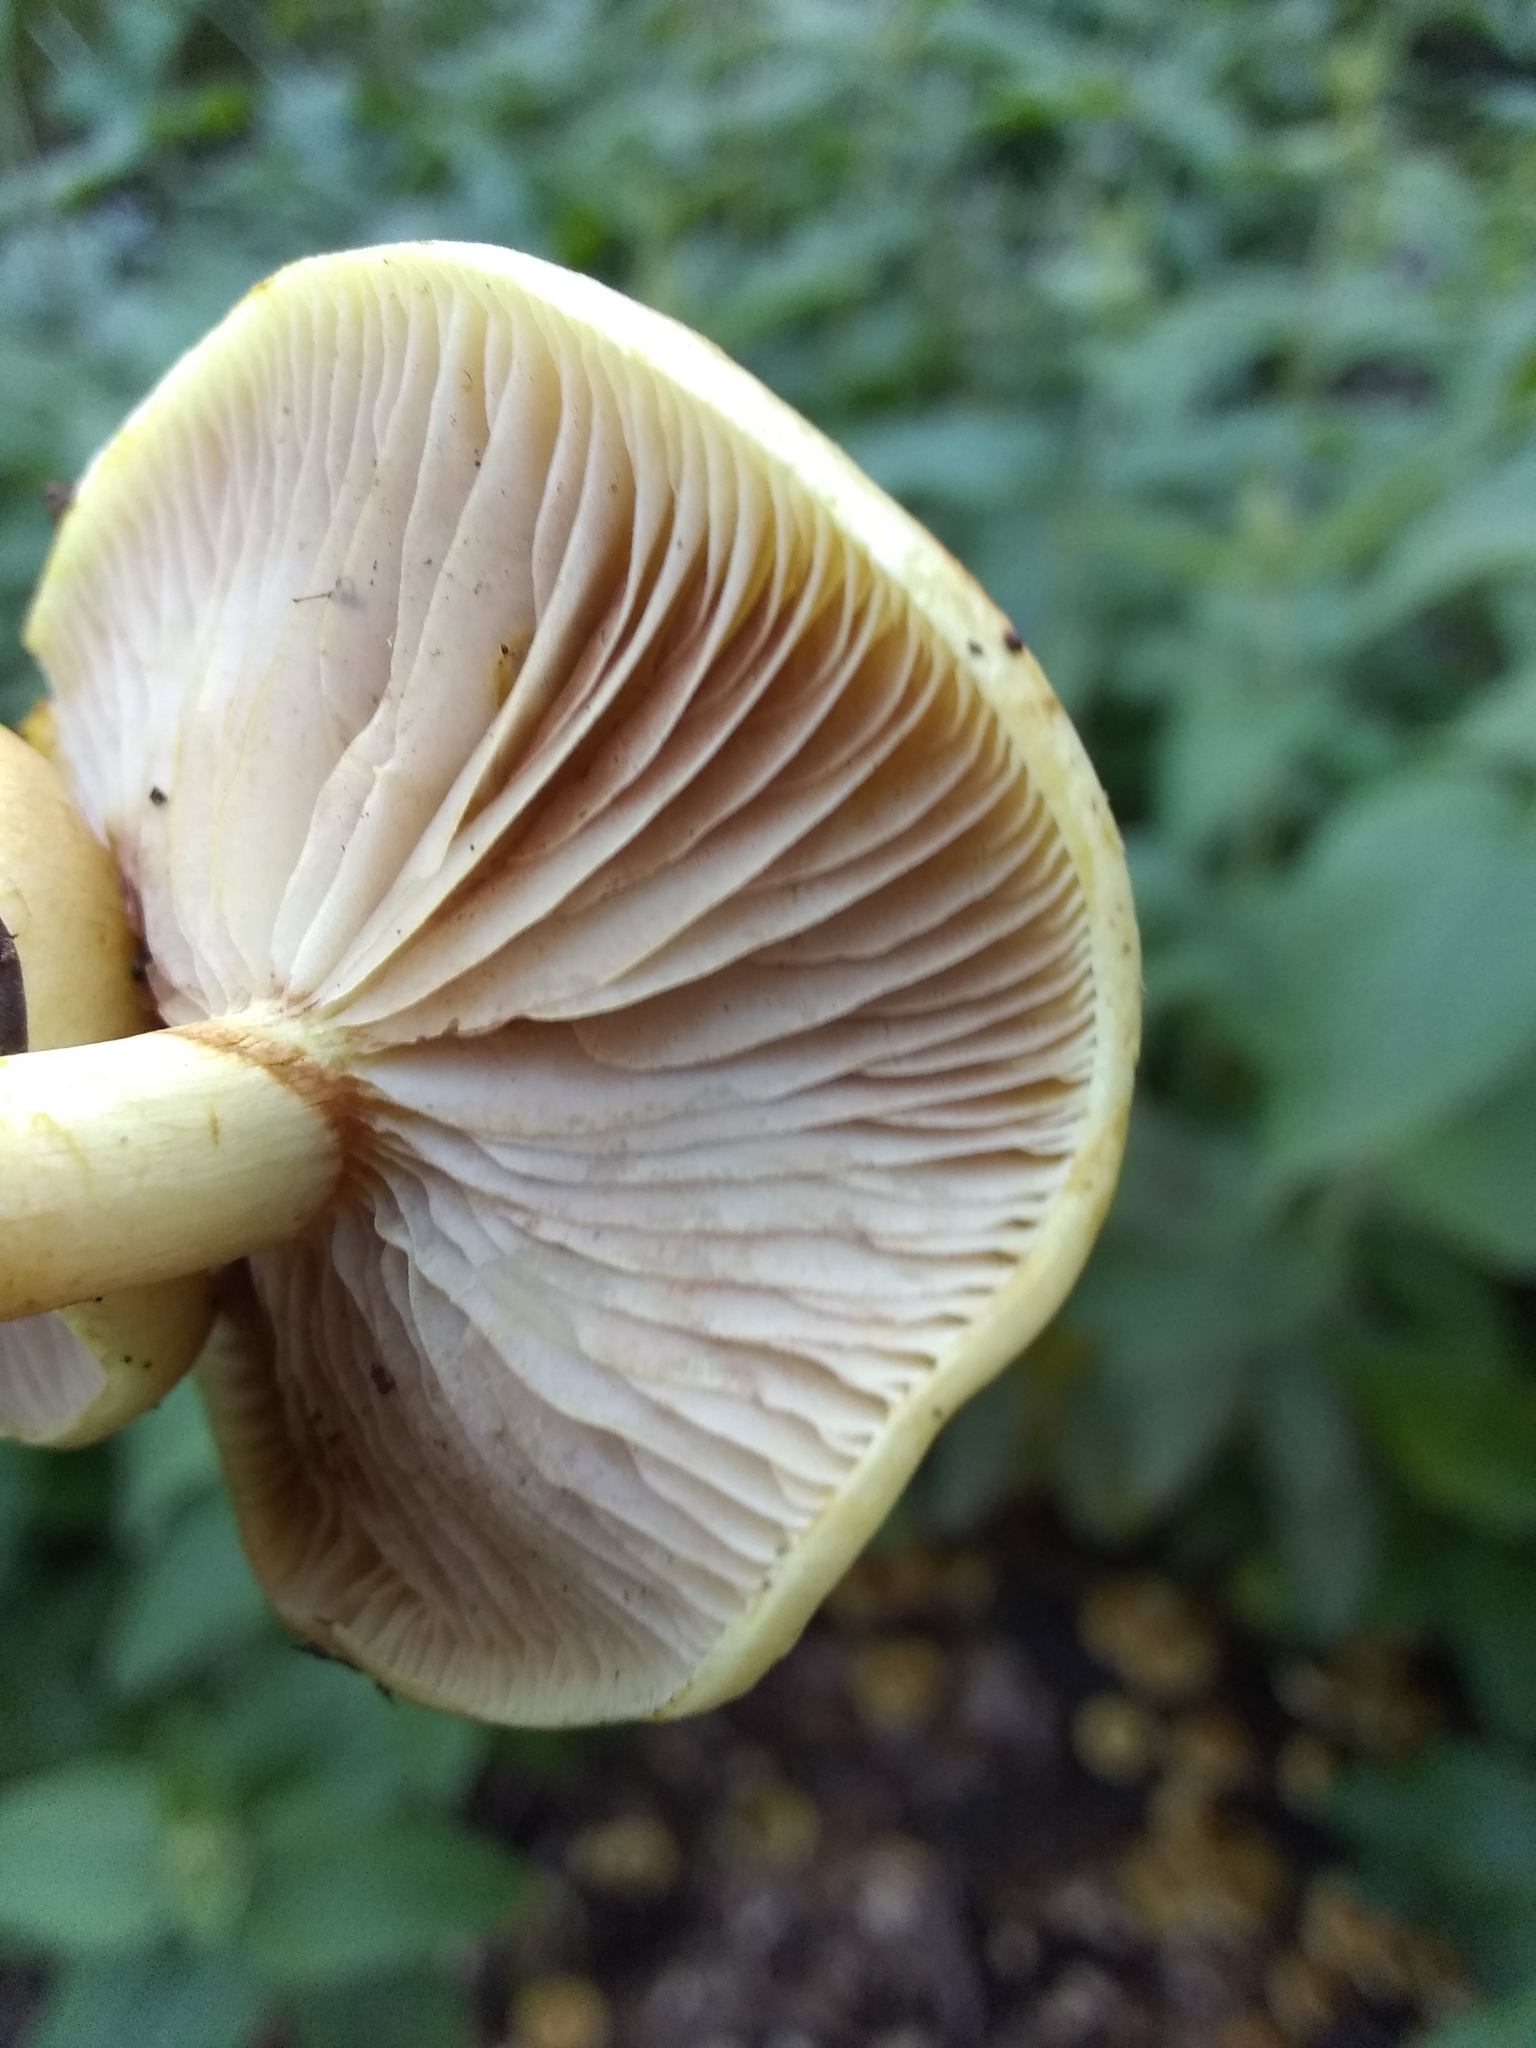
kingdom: Fungi
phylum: Basidiomycota
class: Agaricomycetes
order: Agaricales
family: Strophariaceae
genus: Pholiota
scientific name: Pholiota spumosa
